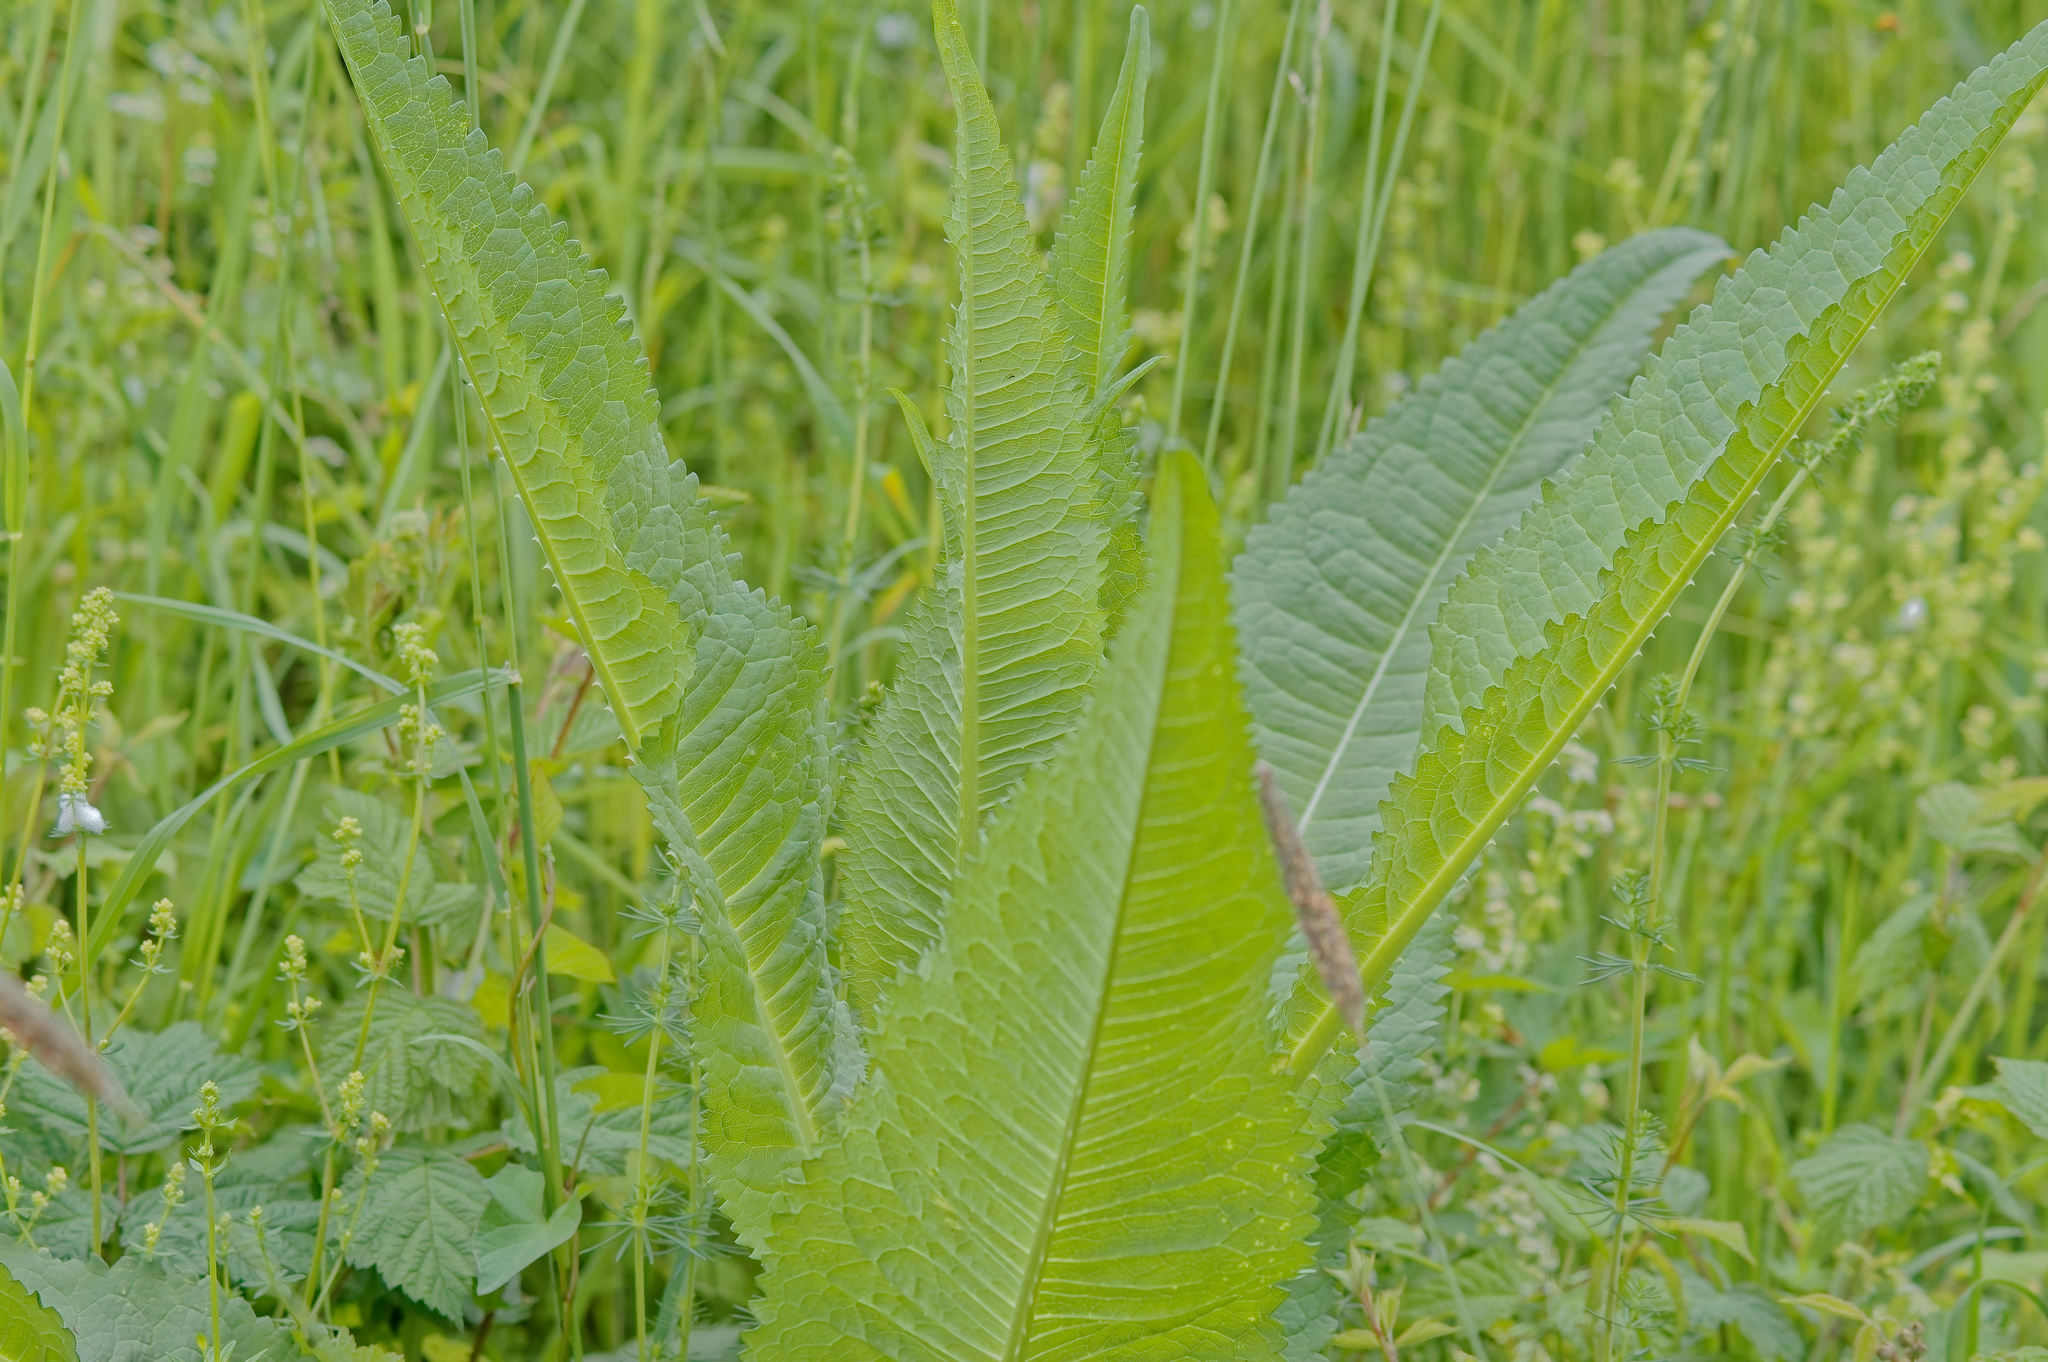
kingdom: Plantae
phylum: Tracheophyta
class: Magnoliopsida
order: Dipsacales
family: Caprifoliaceae
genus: Dipsacus
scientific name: Dipsacus fullonum
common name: Teasel
